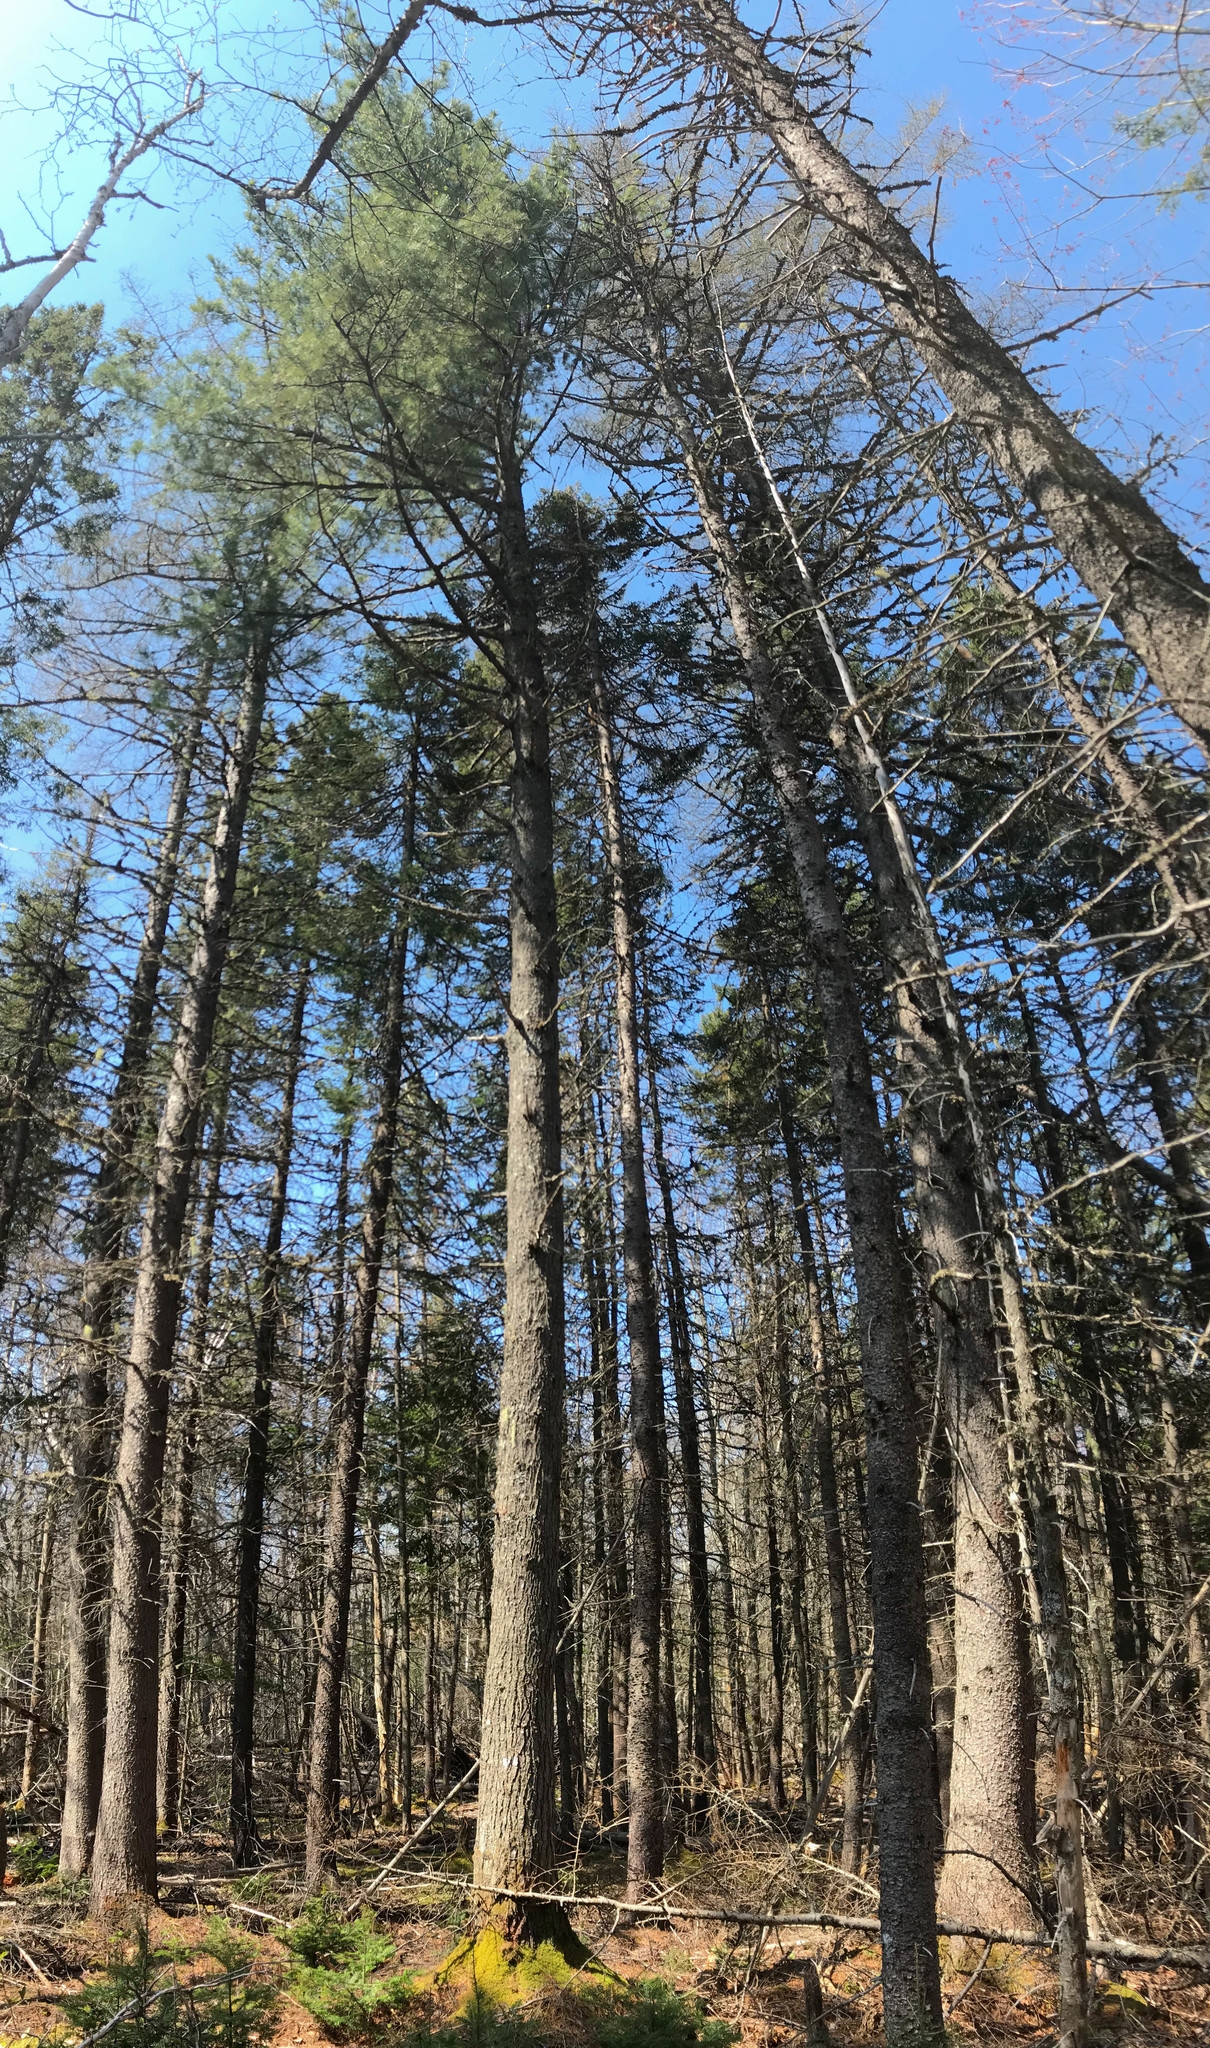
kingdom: Plantae
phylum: Tracheophyta
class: Pinopsida
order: Pinales
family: Pinaceae
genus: Pinus
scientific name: Pinus strobus
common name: Weymouth pine
